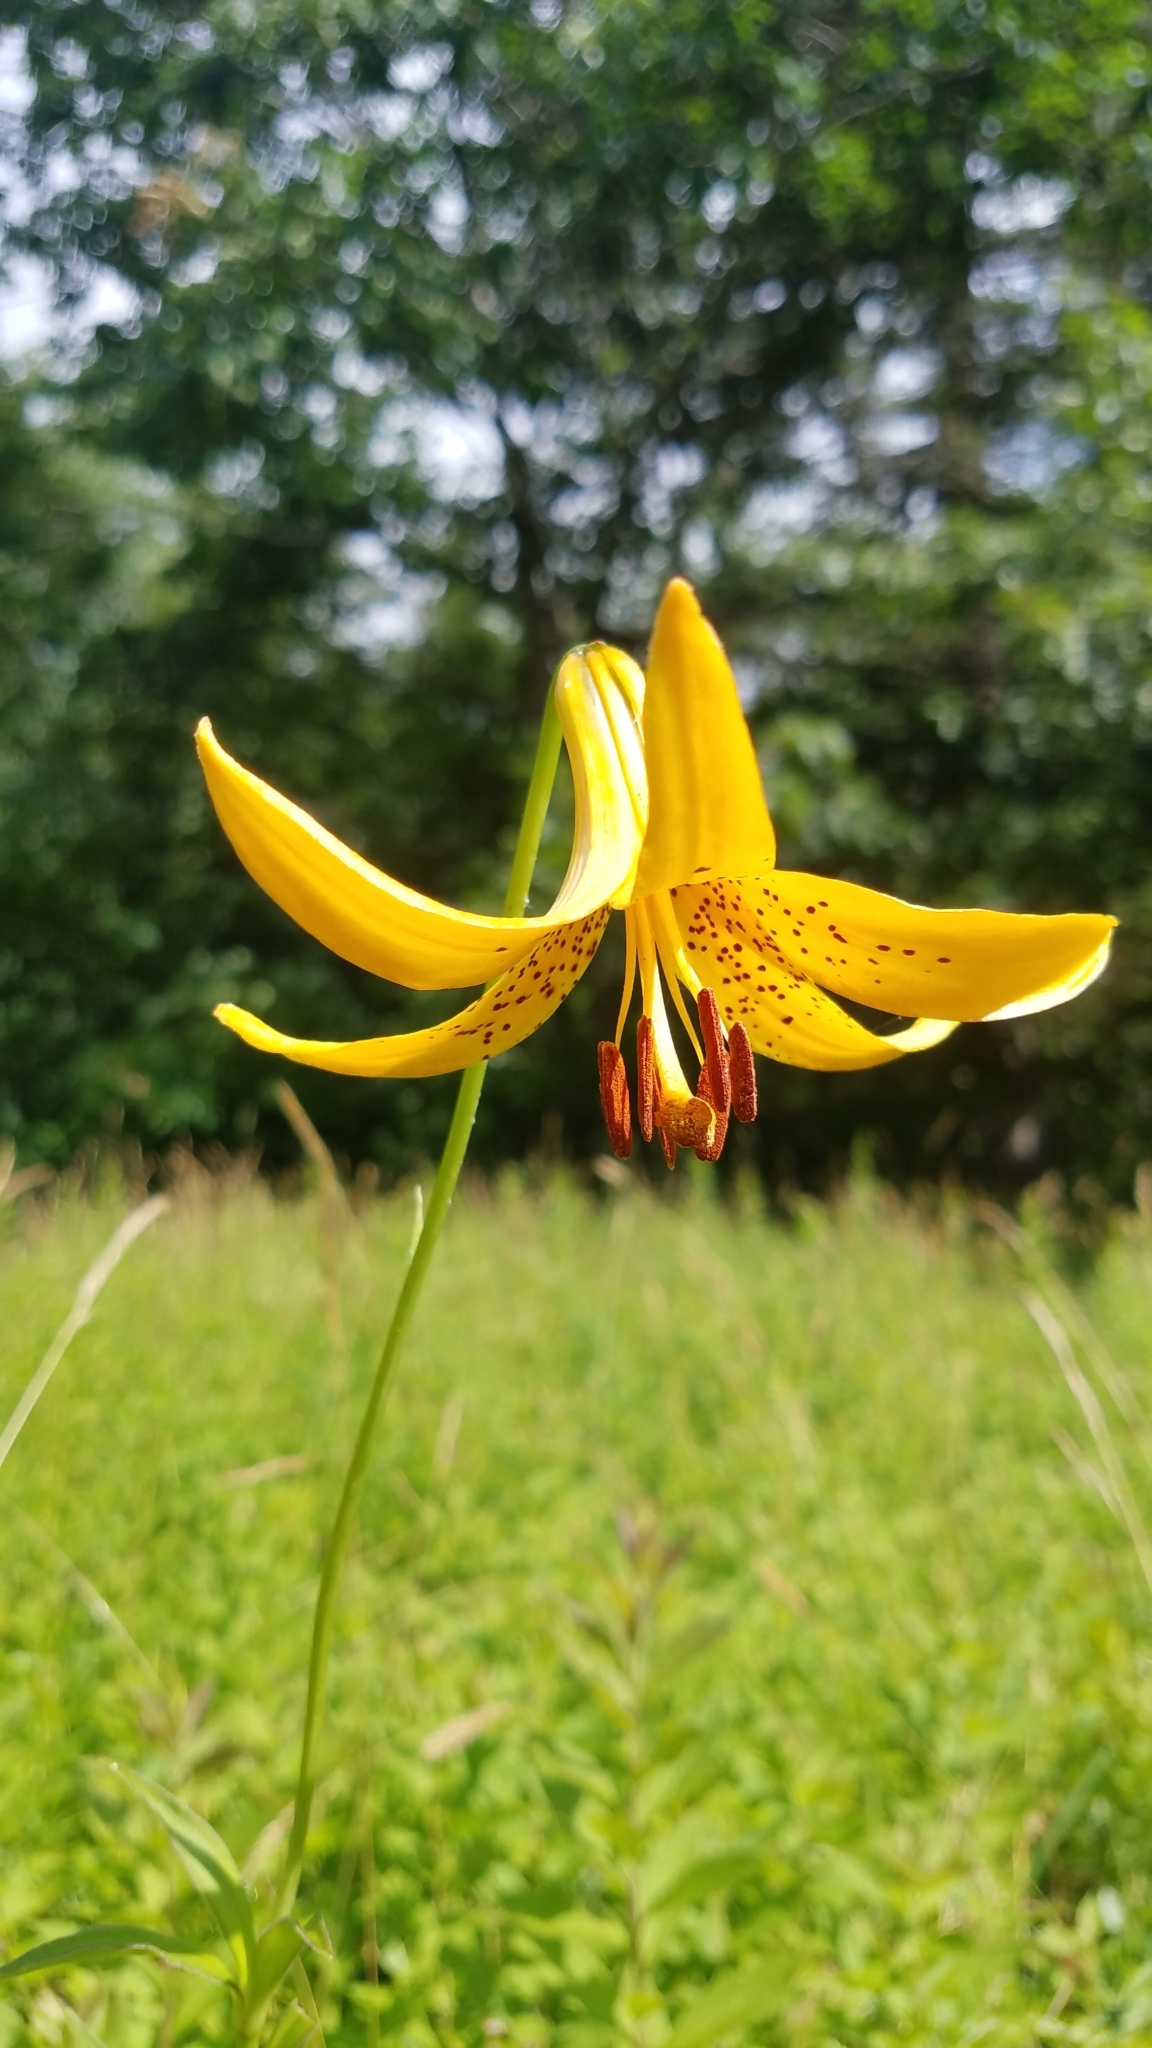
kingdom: Plantae
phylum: Tracheophyta
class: Liliopsida
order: Liliales
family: Liliaceae
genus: Lilium
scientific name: Lilium canadense
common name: Canada lily
